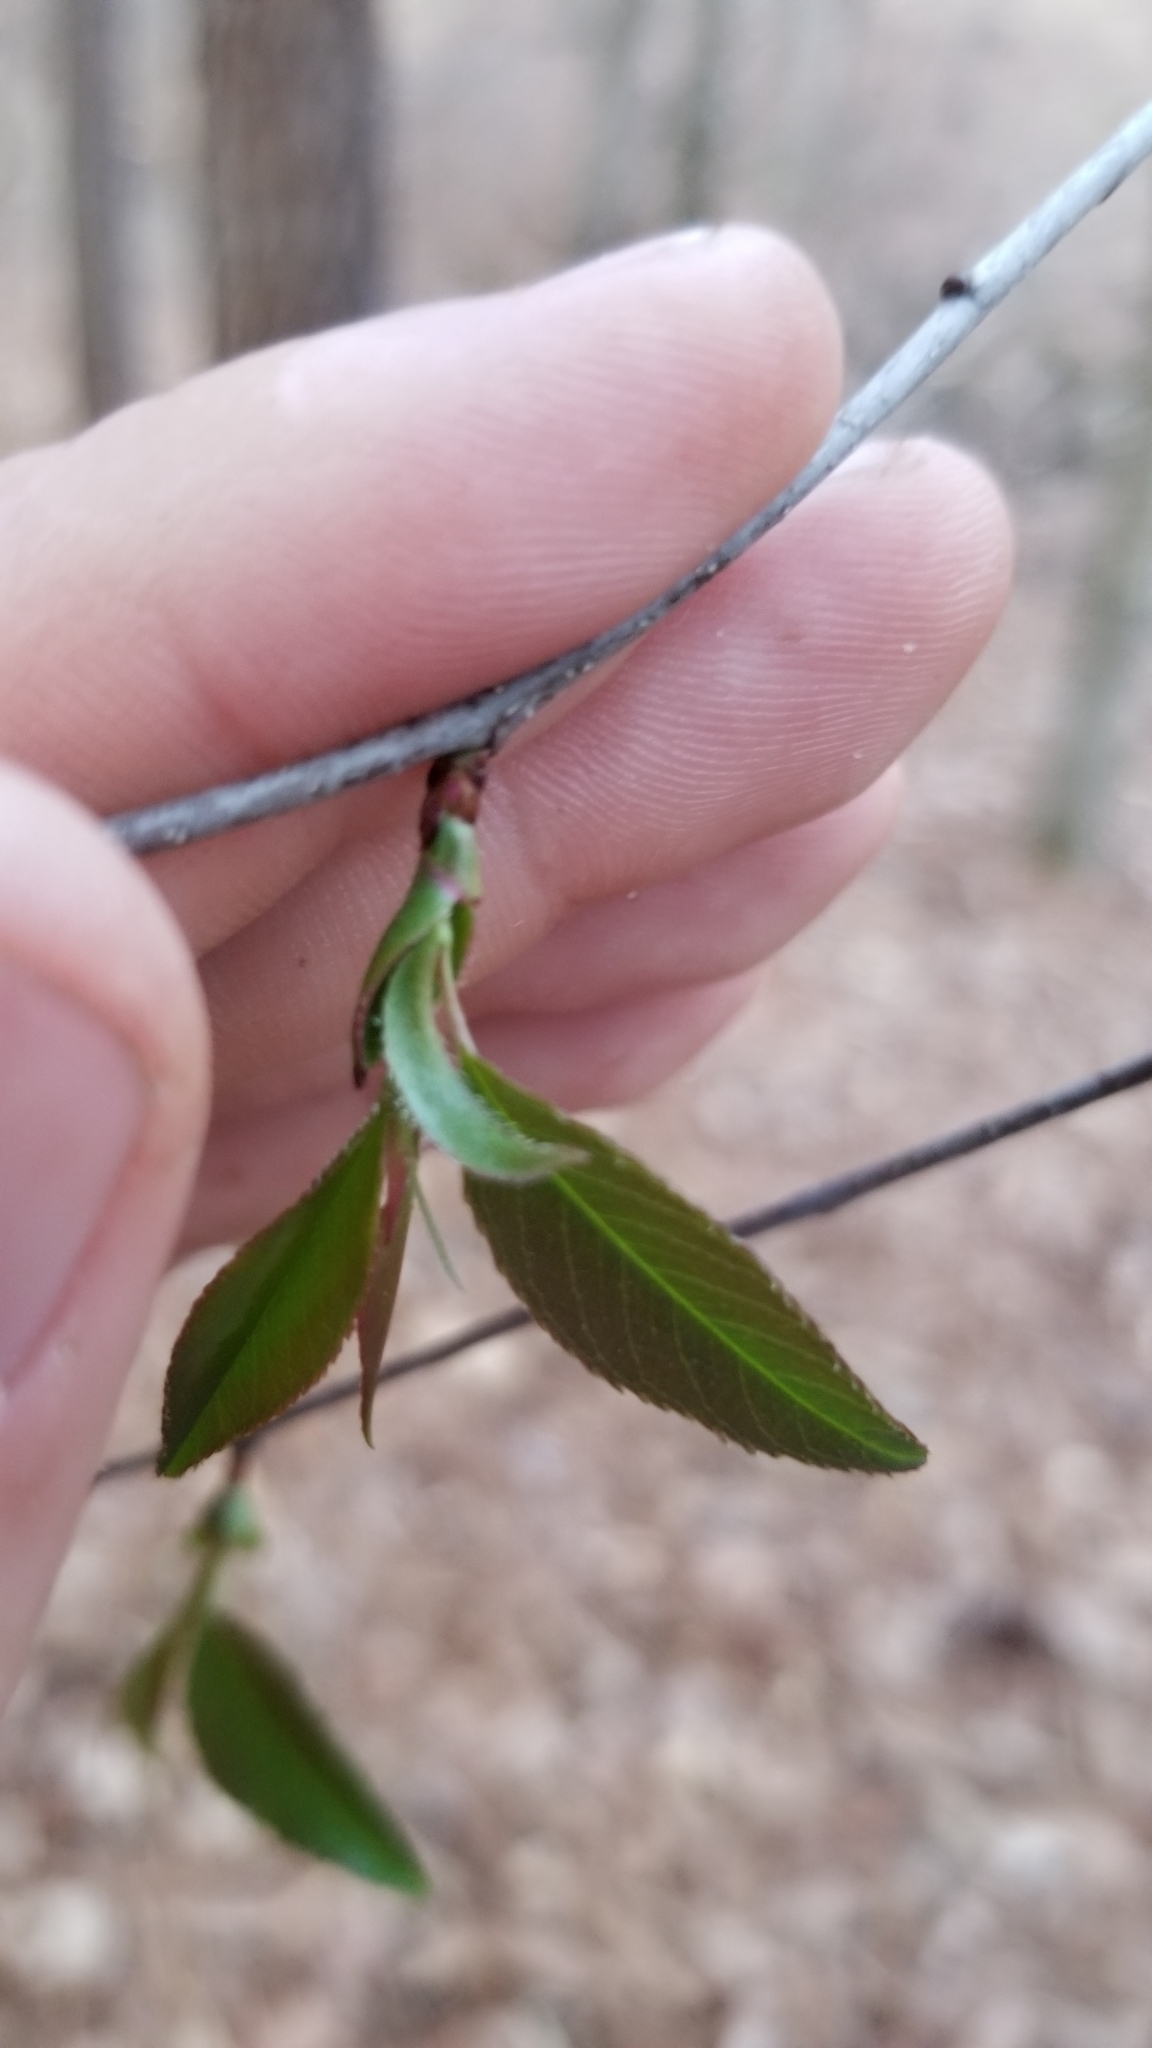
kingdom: Plantae
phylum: Tracheophyta
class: Magnoliopsida
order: Rosales
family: Rosaceae
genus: Prunus
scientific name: Prunus serotina
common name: Black cherry
